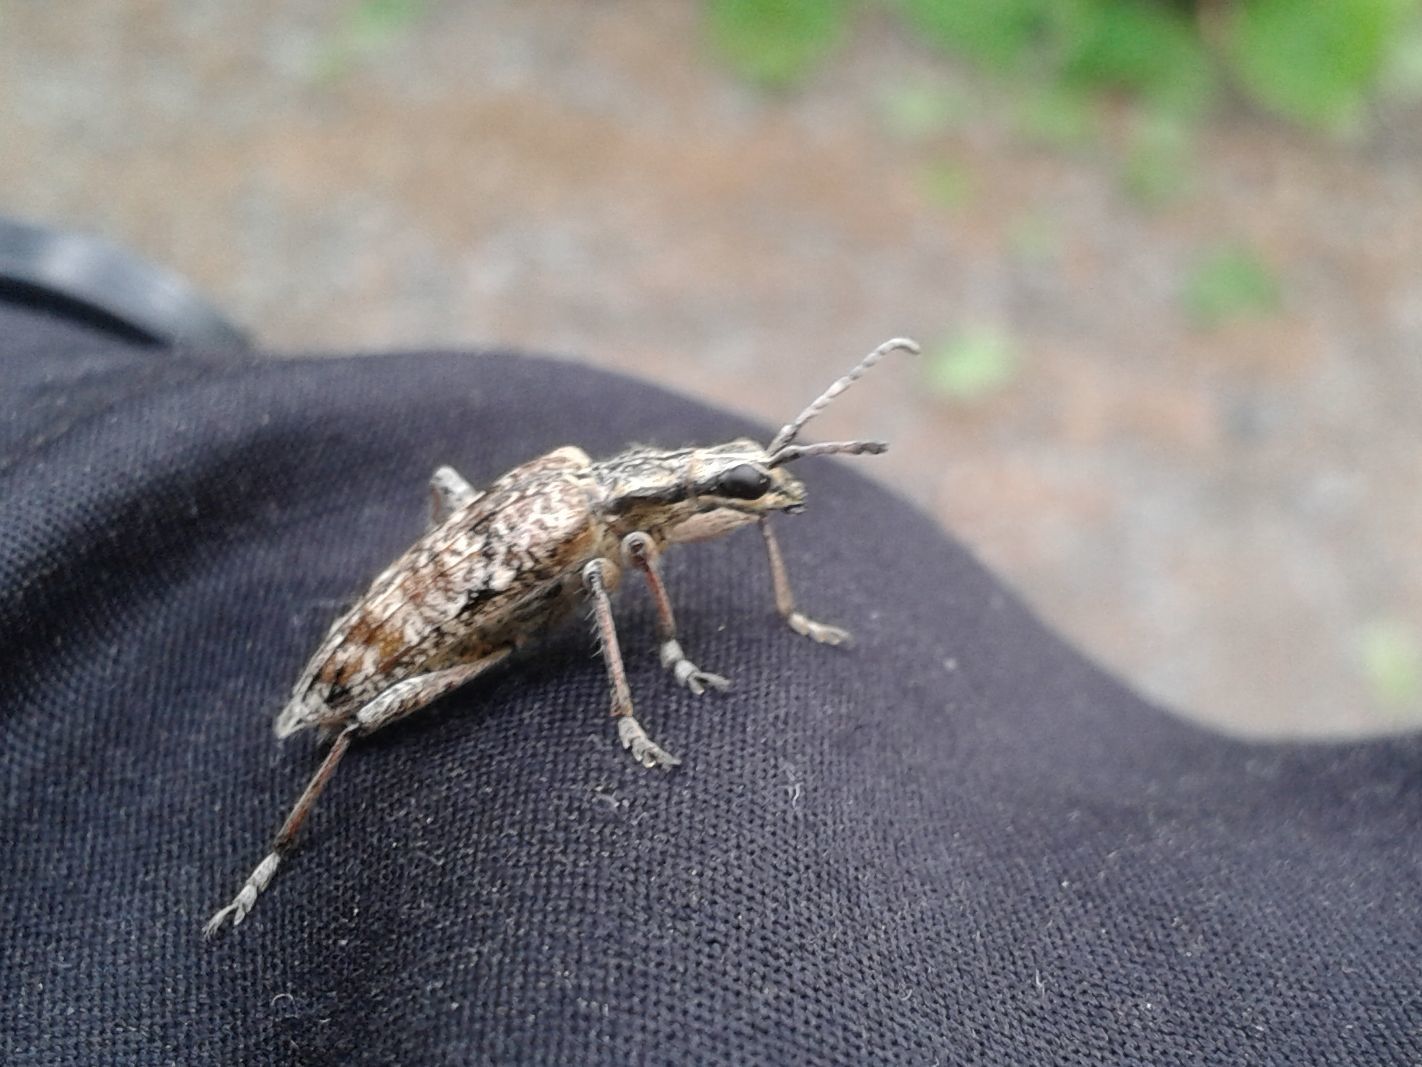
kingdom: Animalia
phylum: Arthropoda
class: Insecta
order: Coleoptera
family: Cerambycidae
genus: Rhagium
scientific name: Rhagium inquisitor
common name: Ribbed pine borer
